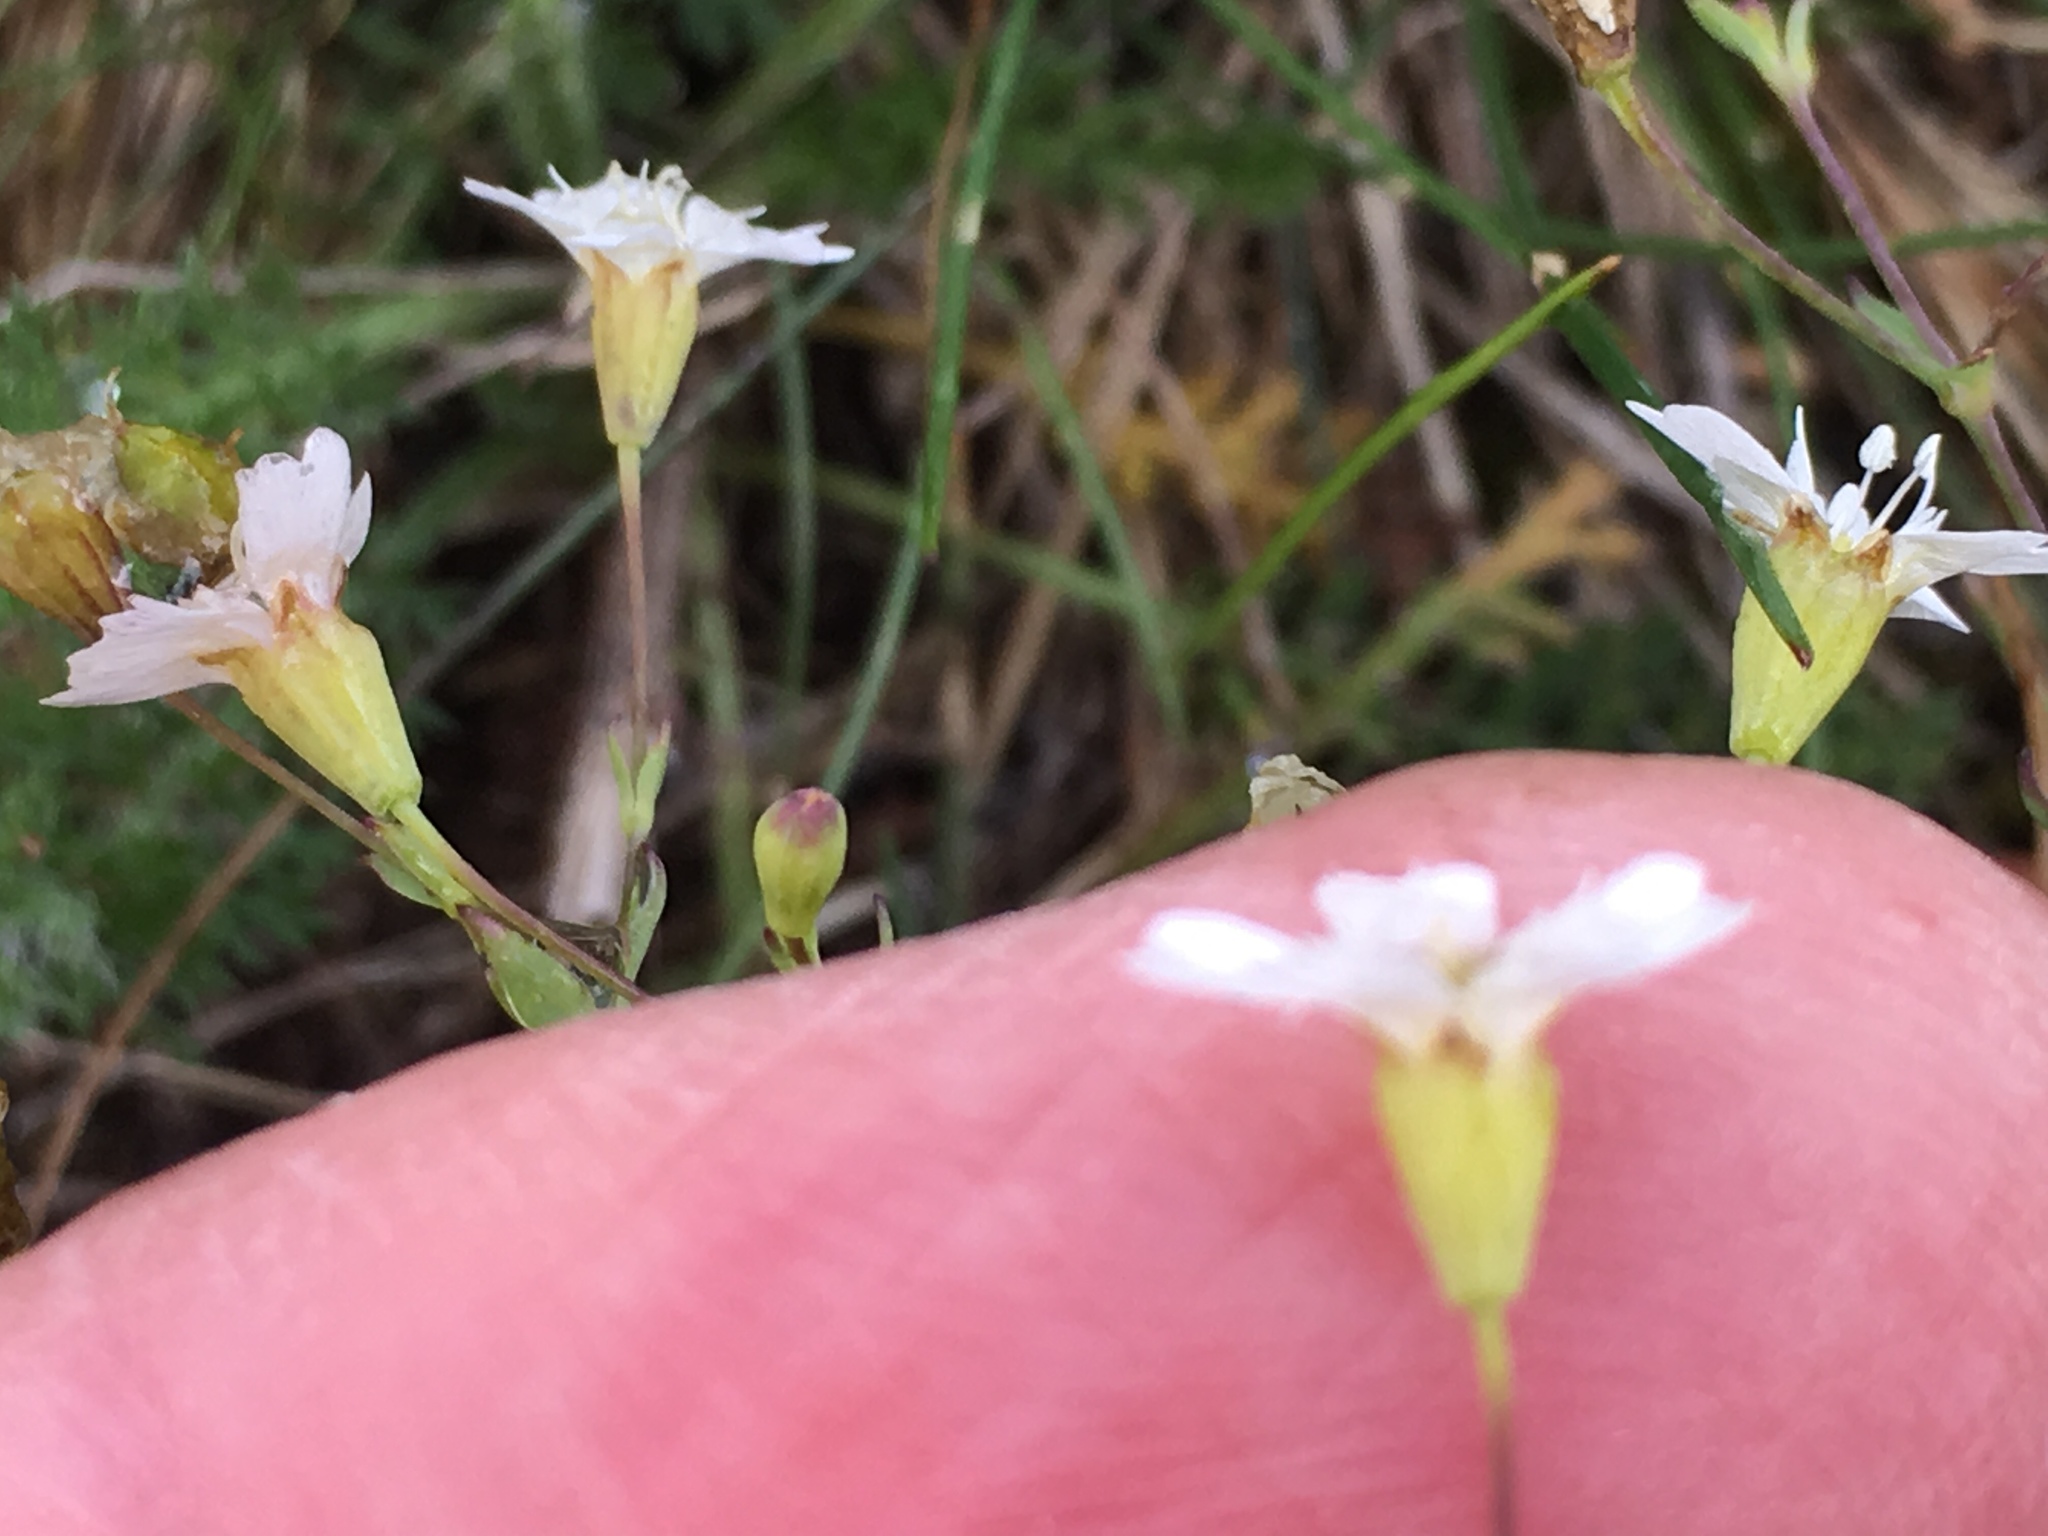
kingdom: Plantae
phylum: Tracheophyta
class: Magnoliopsida
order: Caryophyllales
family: Caryophyllaceae
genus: Atocion
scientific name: Atocion rupestre
